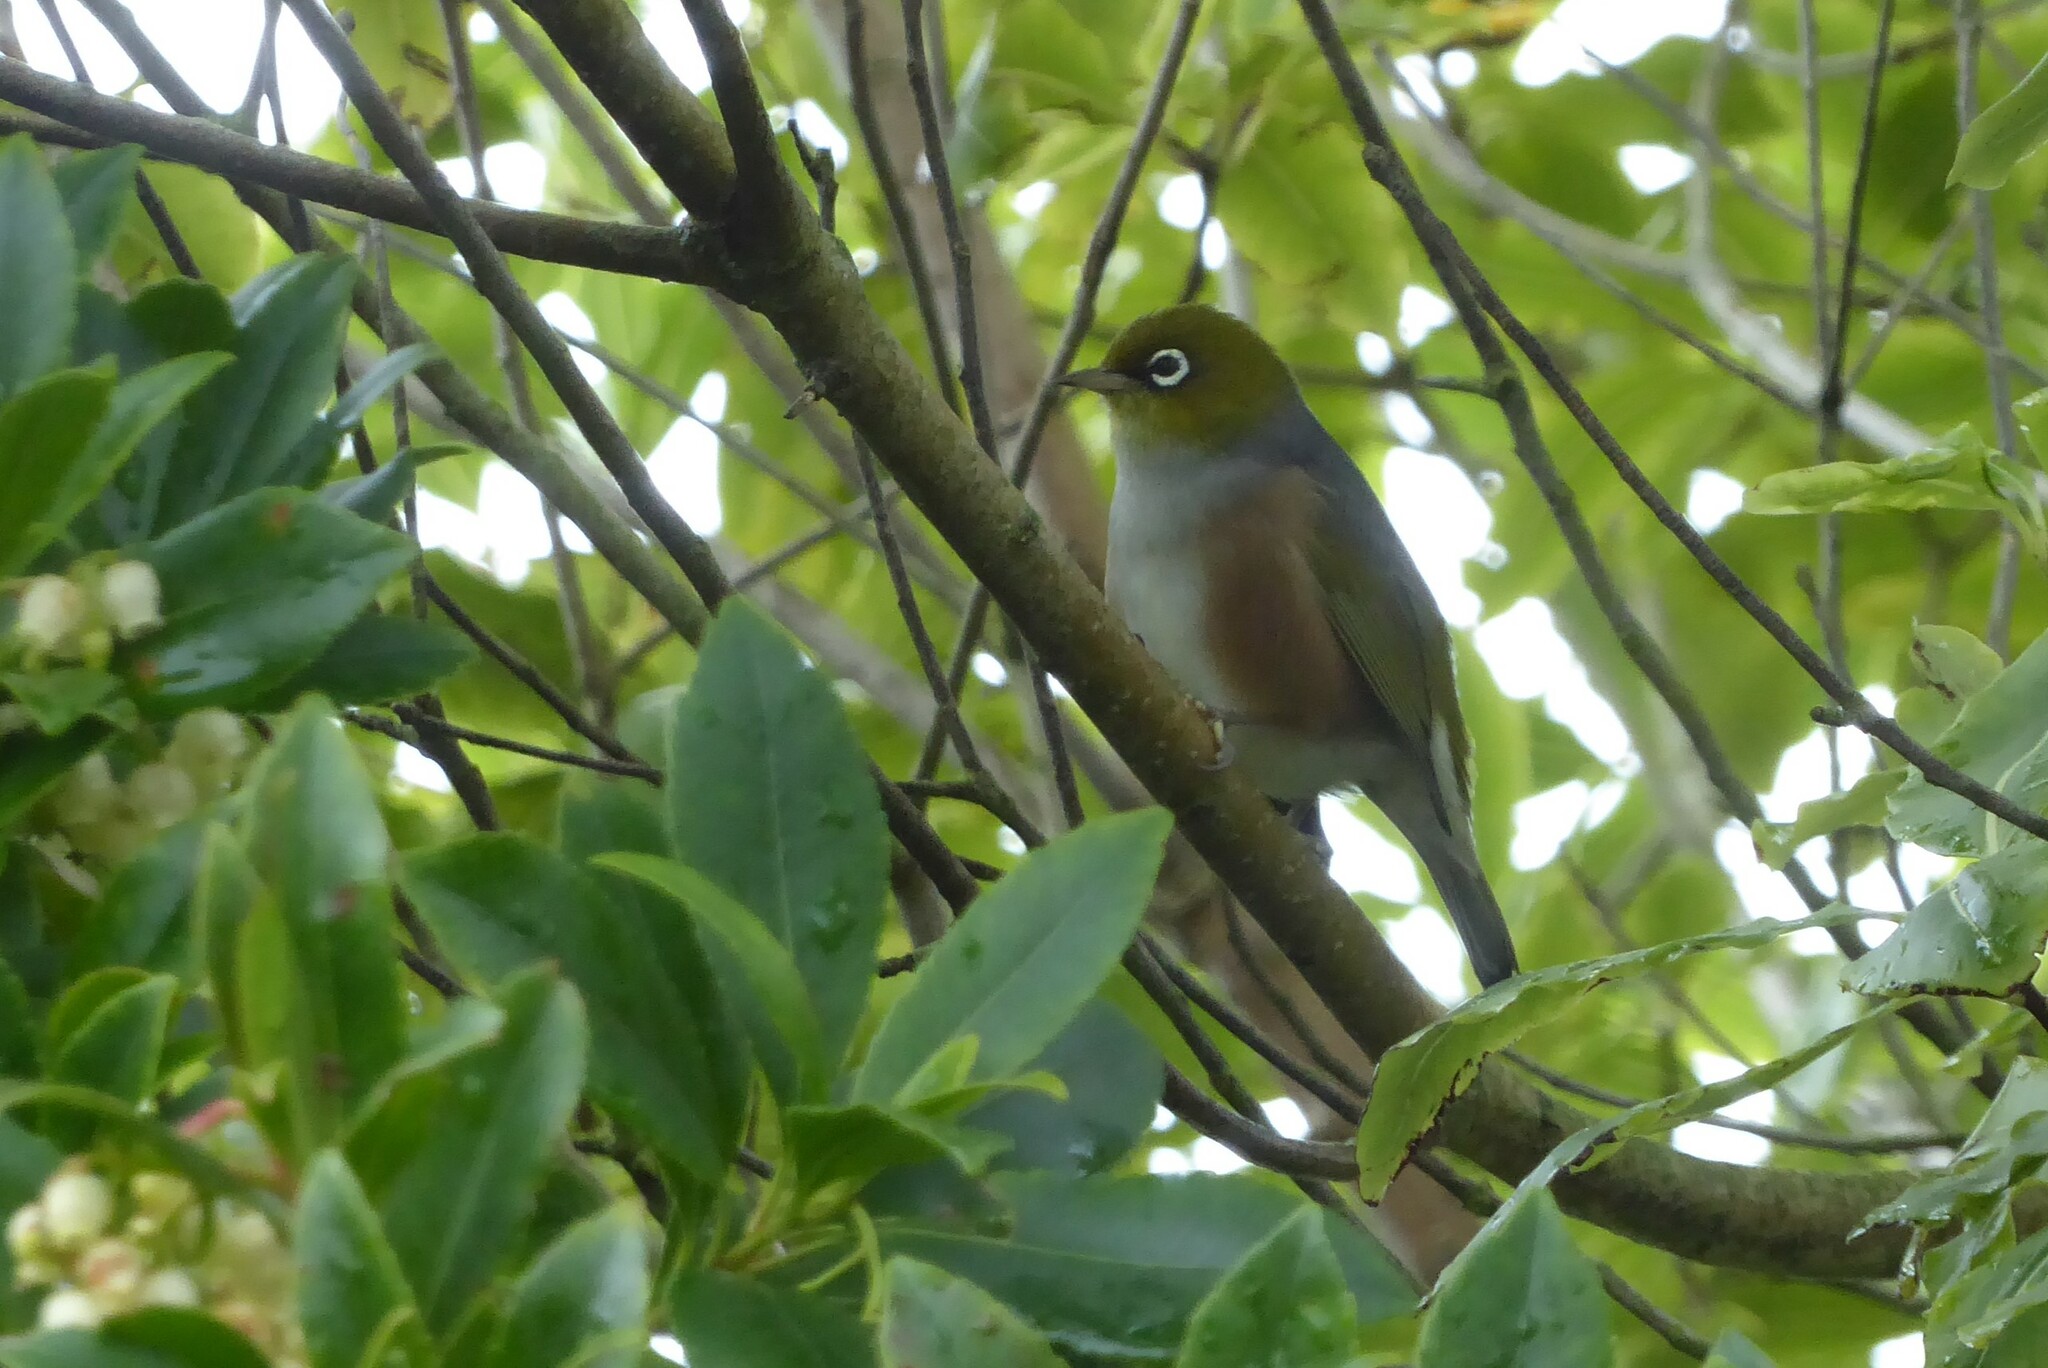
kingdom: Animalia
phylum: Chordata
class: Aves
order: Passeriformes
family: Zosteropidae
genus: Zosterops
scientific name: Zosterops lateralis
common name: Silvereye
